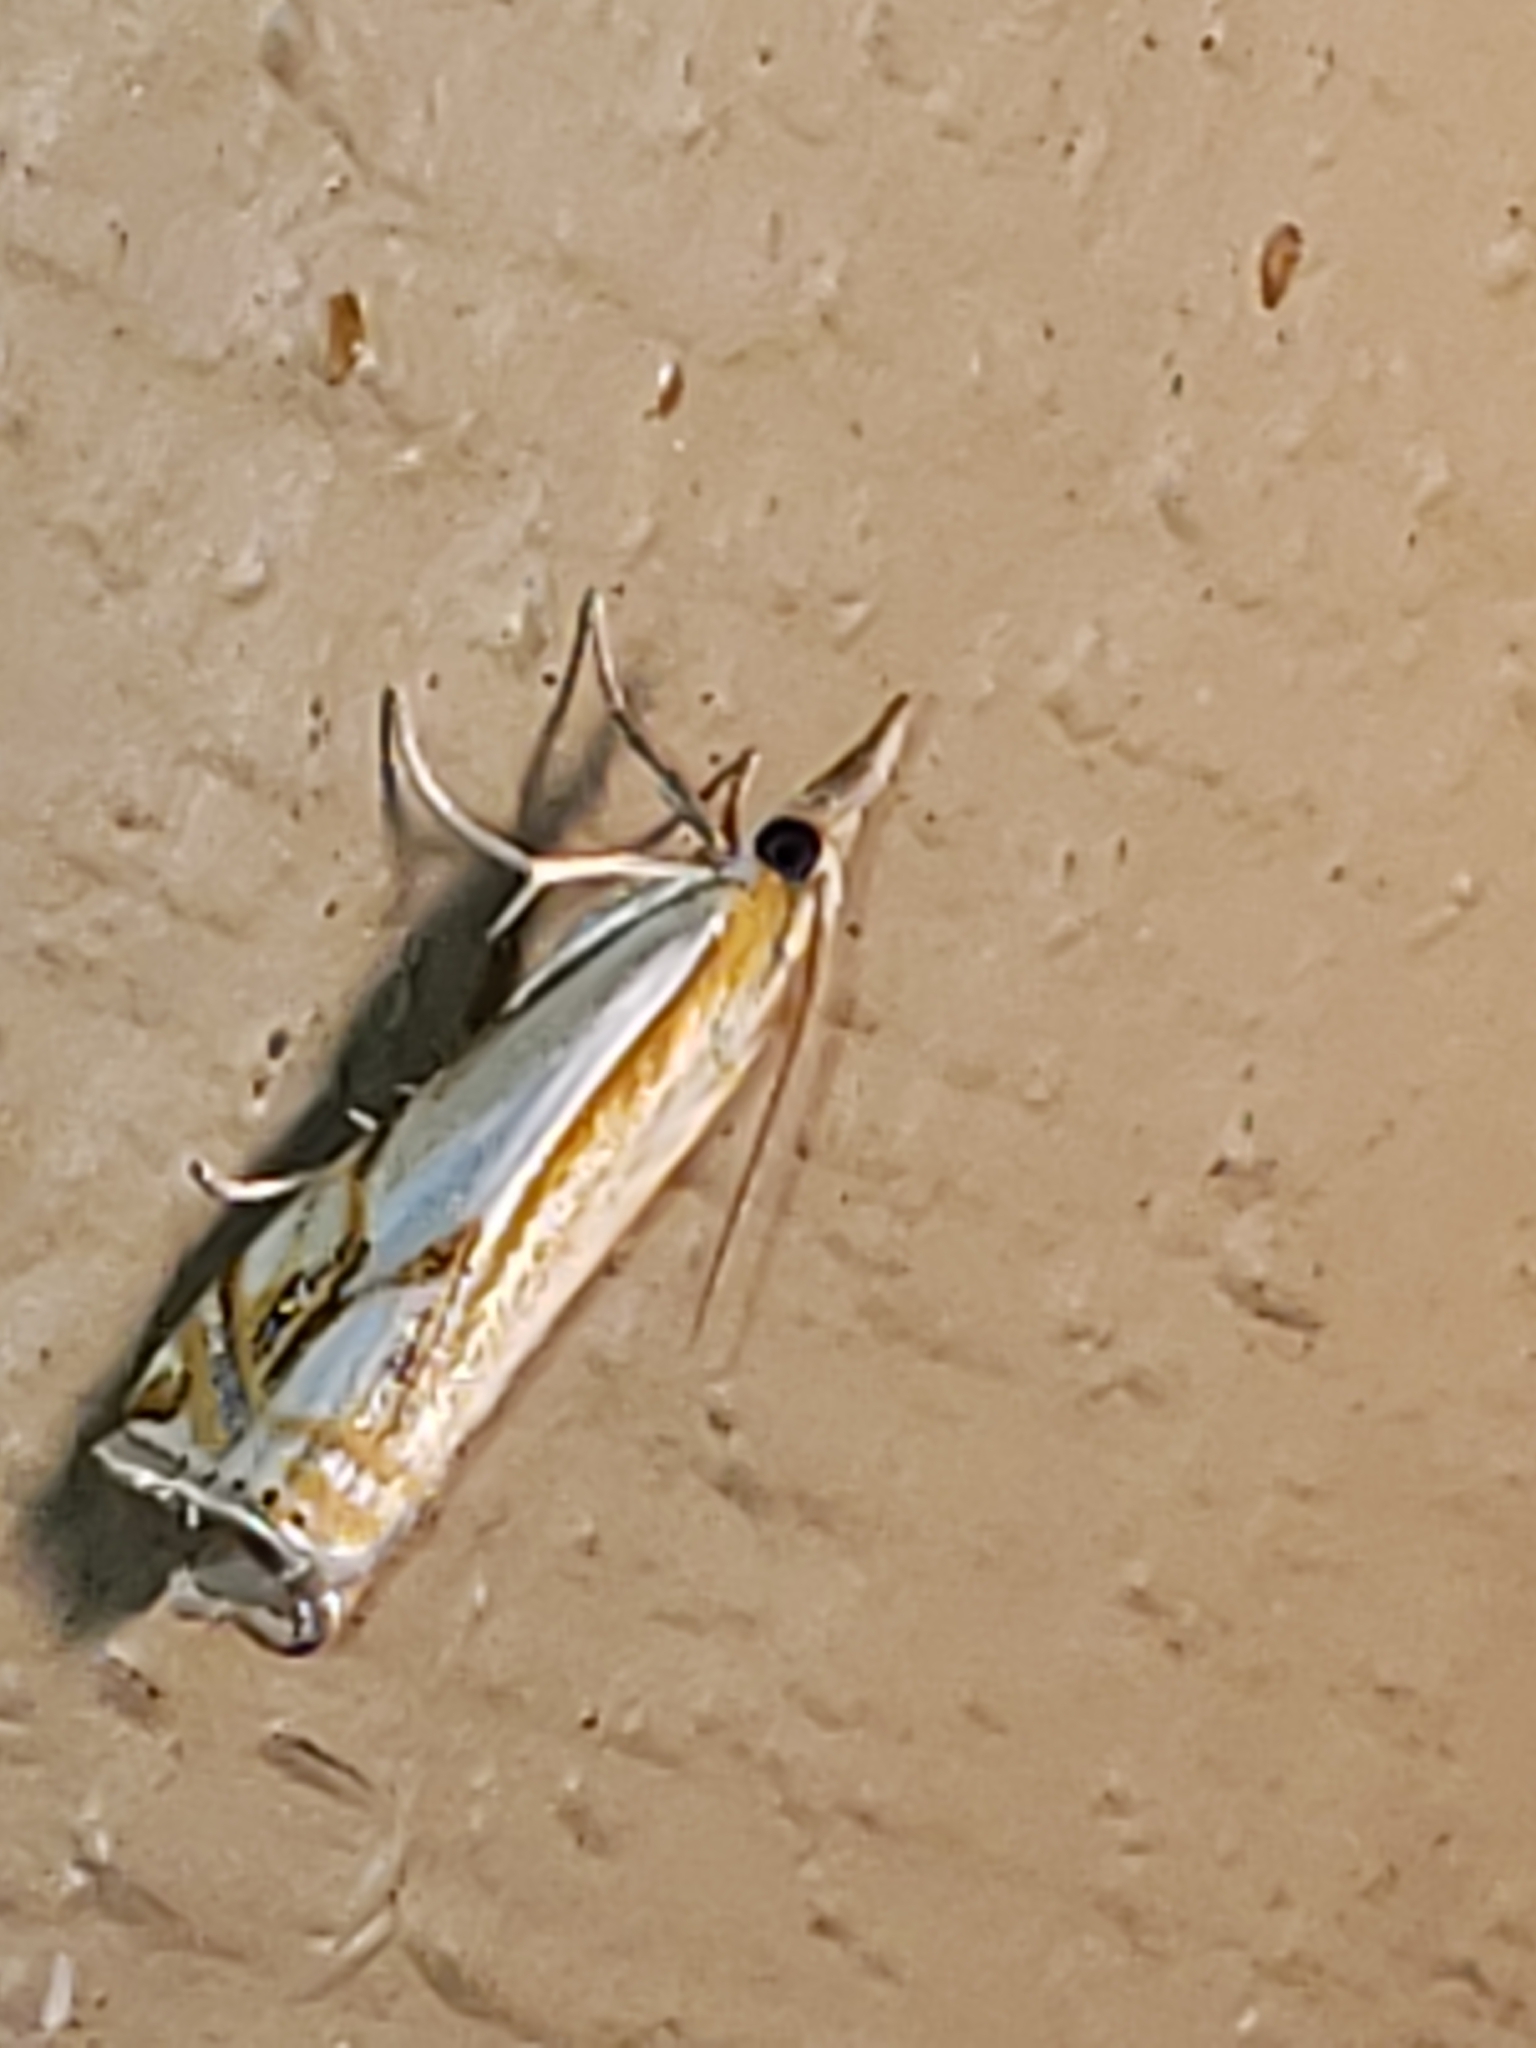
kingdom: Animalia
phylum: Arthropoda
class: Insecta
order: Lepidoptera
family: Crambidae
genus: Crambus
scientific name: Crambus agitatellus
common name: Double-banded grass-veneer
